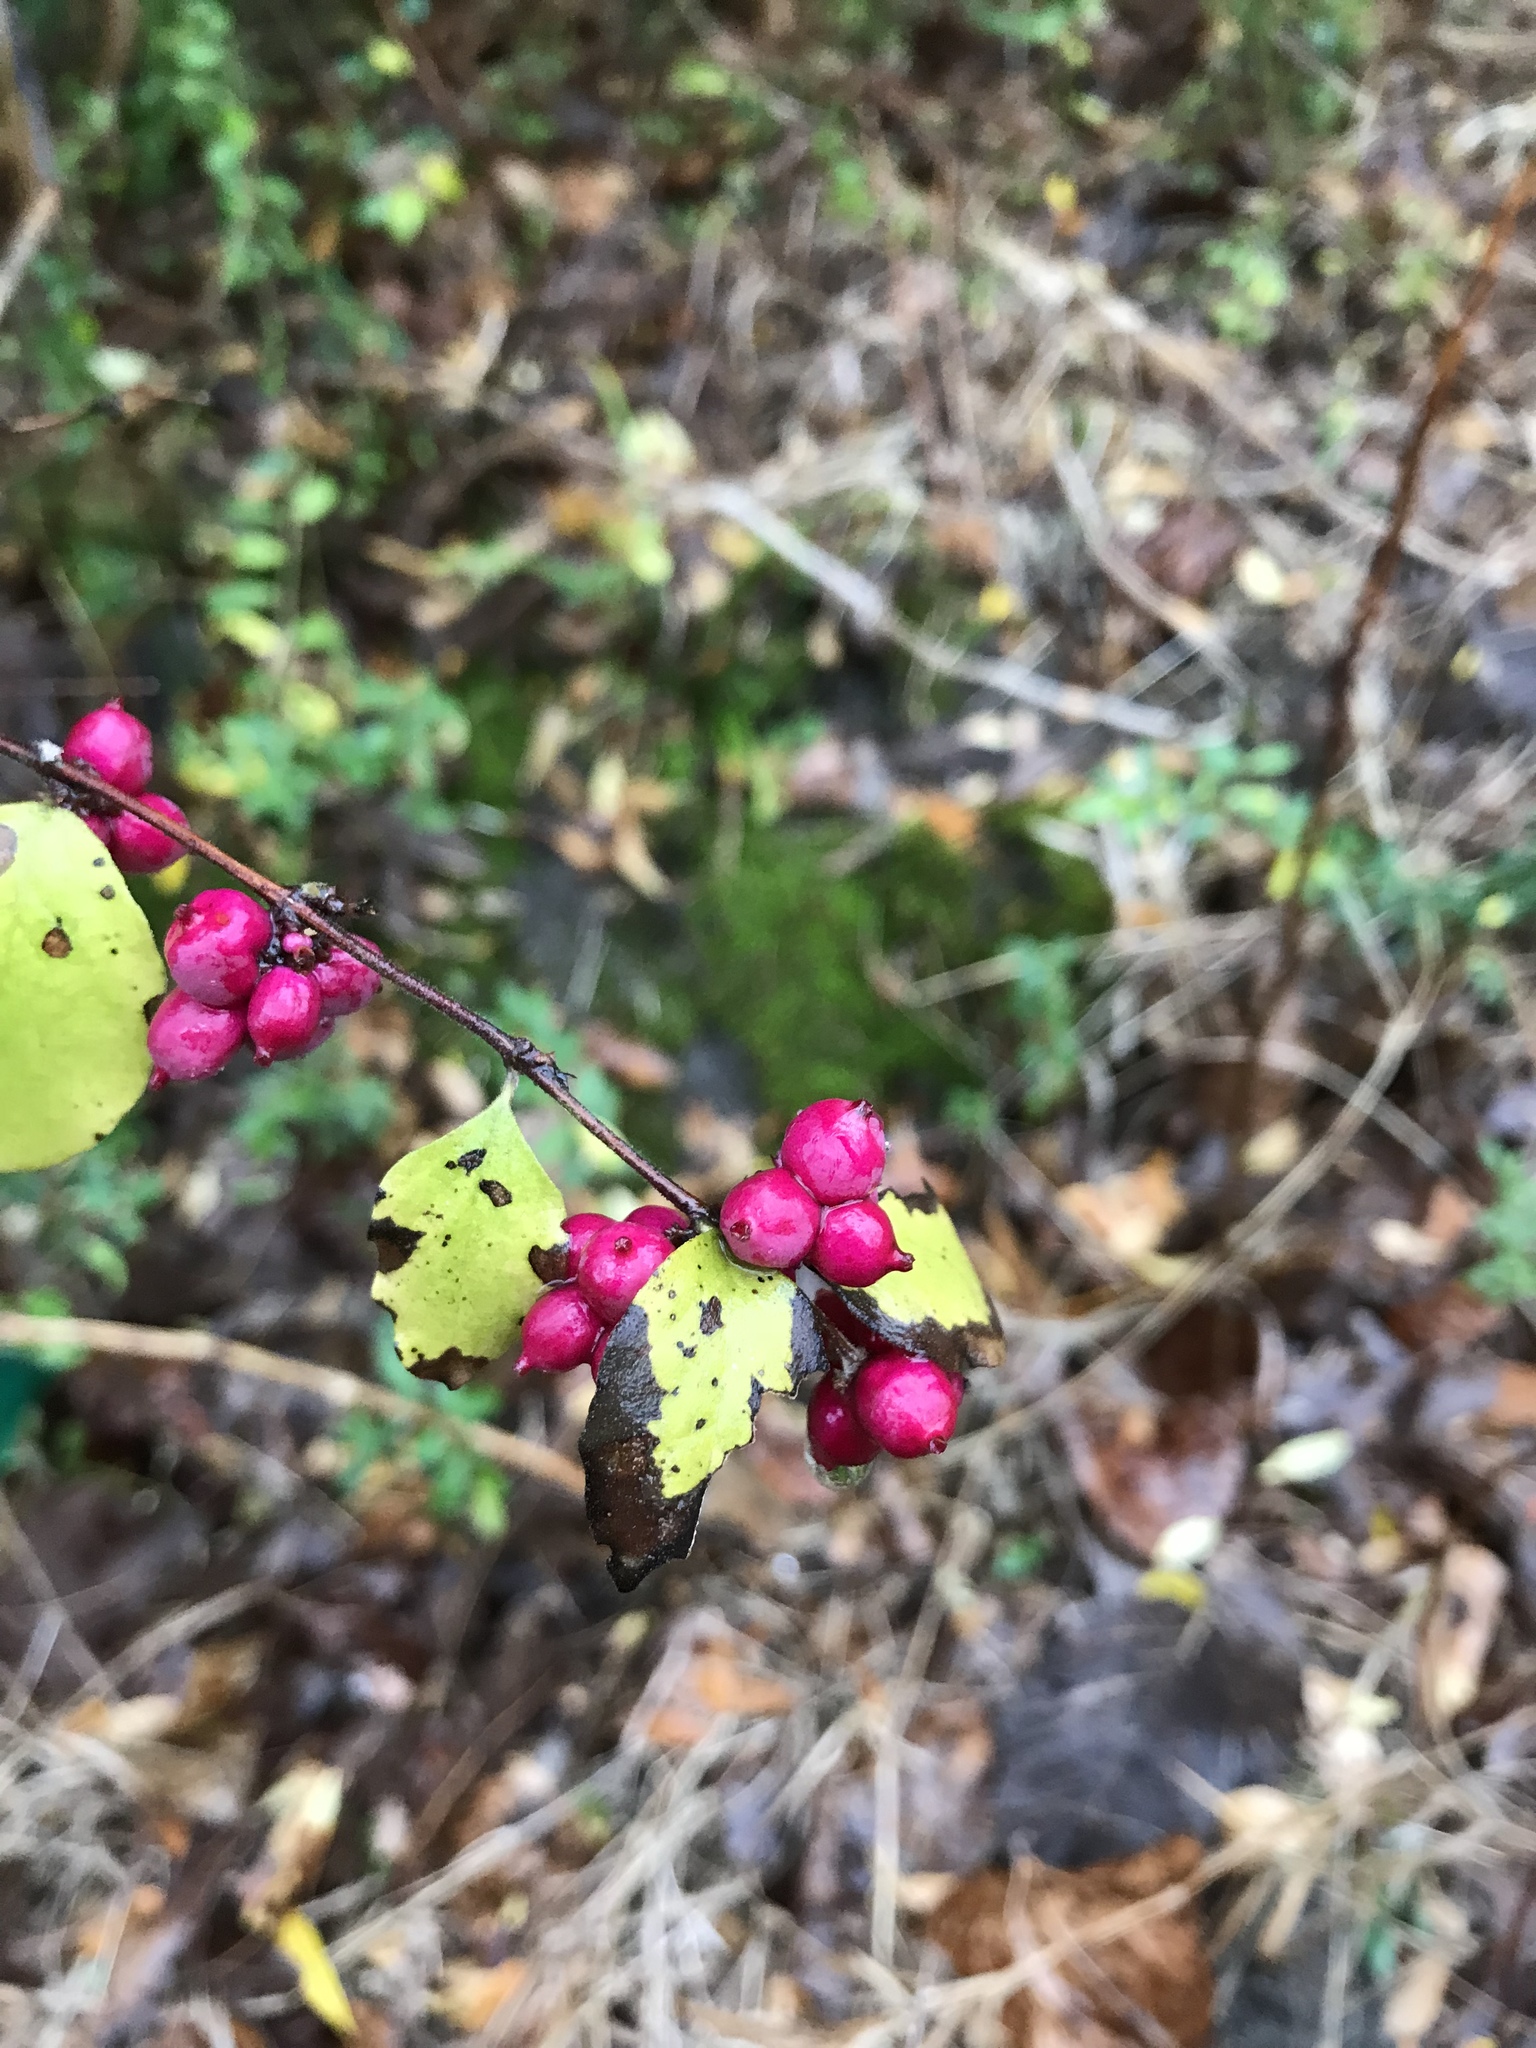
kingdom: Plantae
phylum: Tracheophyta
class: Magnoliopsida
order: Dipsacales
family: Caprifoliaceae
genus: Symphoricarpos
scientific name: Symphoricarpos orbiculatus
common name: Coralberry
